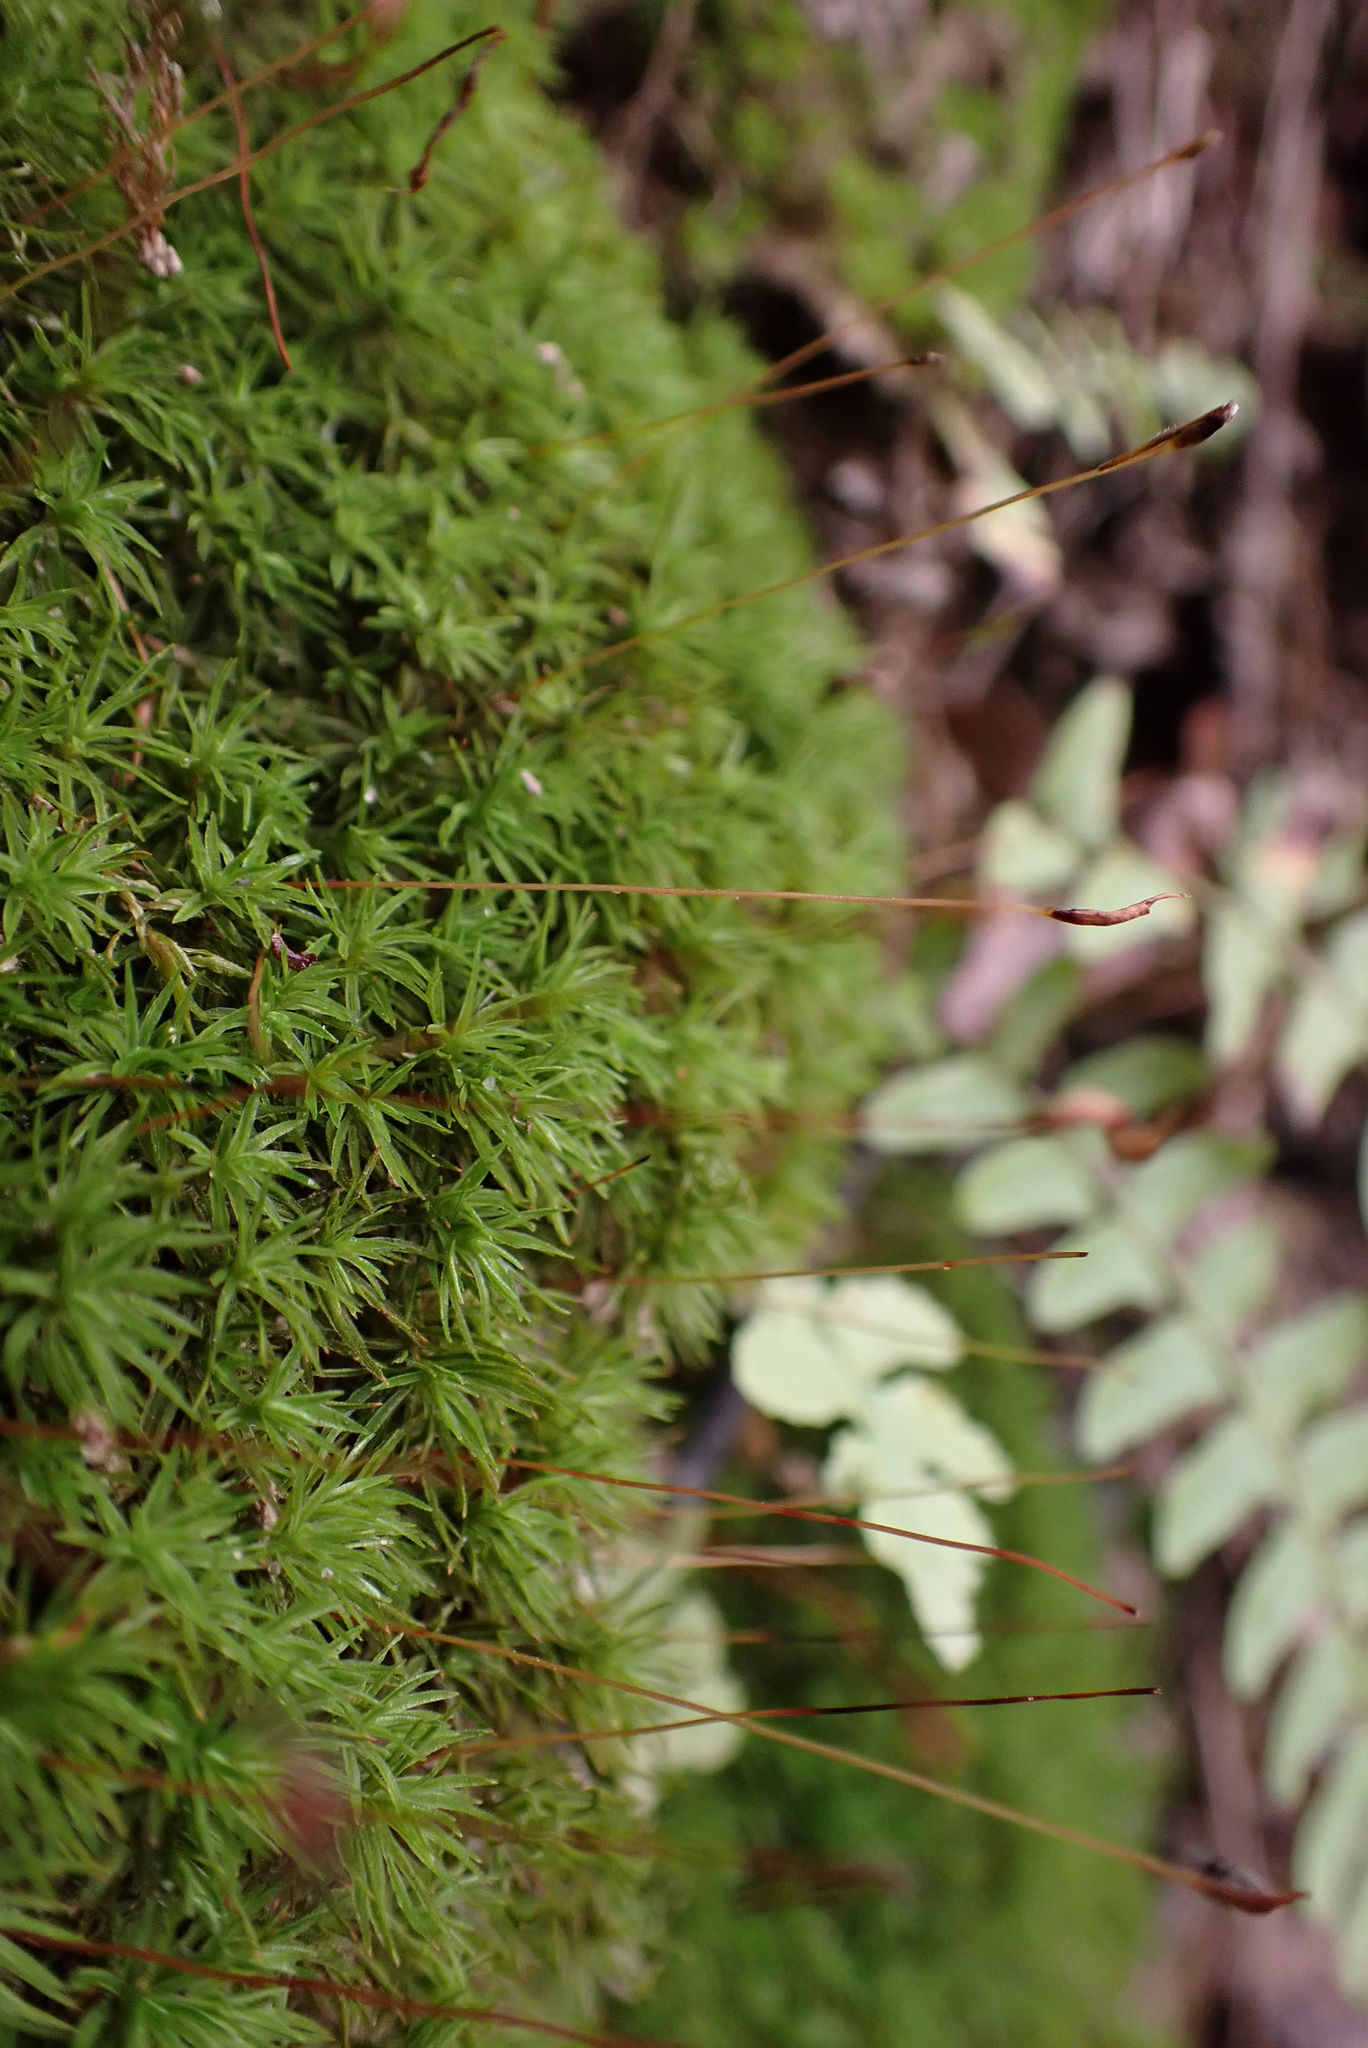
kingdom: Plantae
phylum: Bryophyta
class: Polytrichopsida
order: Polytrichales
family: Polytrichaceae
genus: Atrichum
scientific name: Atrichum angustatum
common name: Lesser smoothcap
